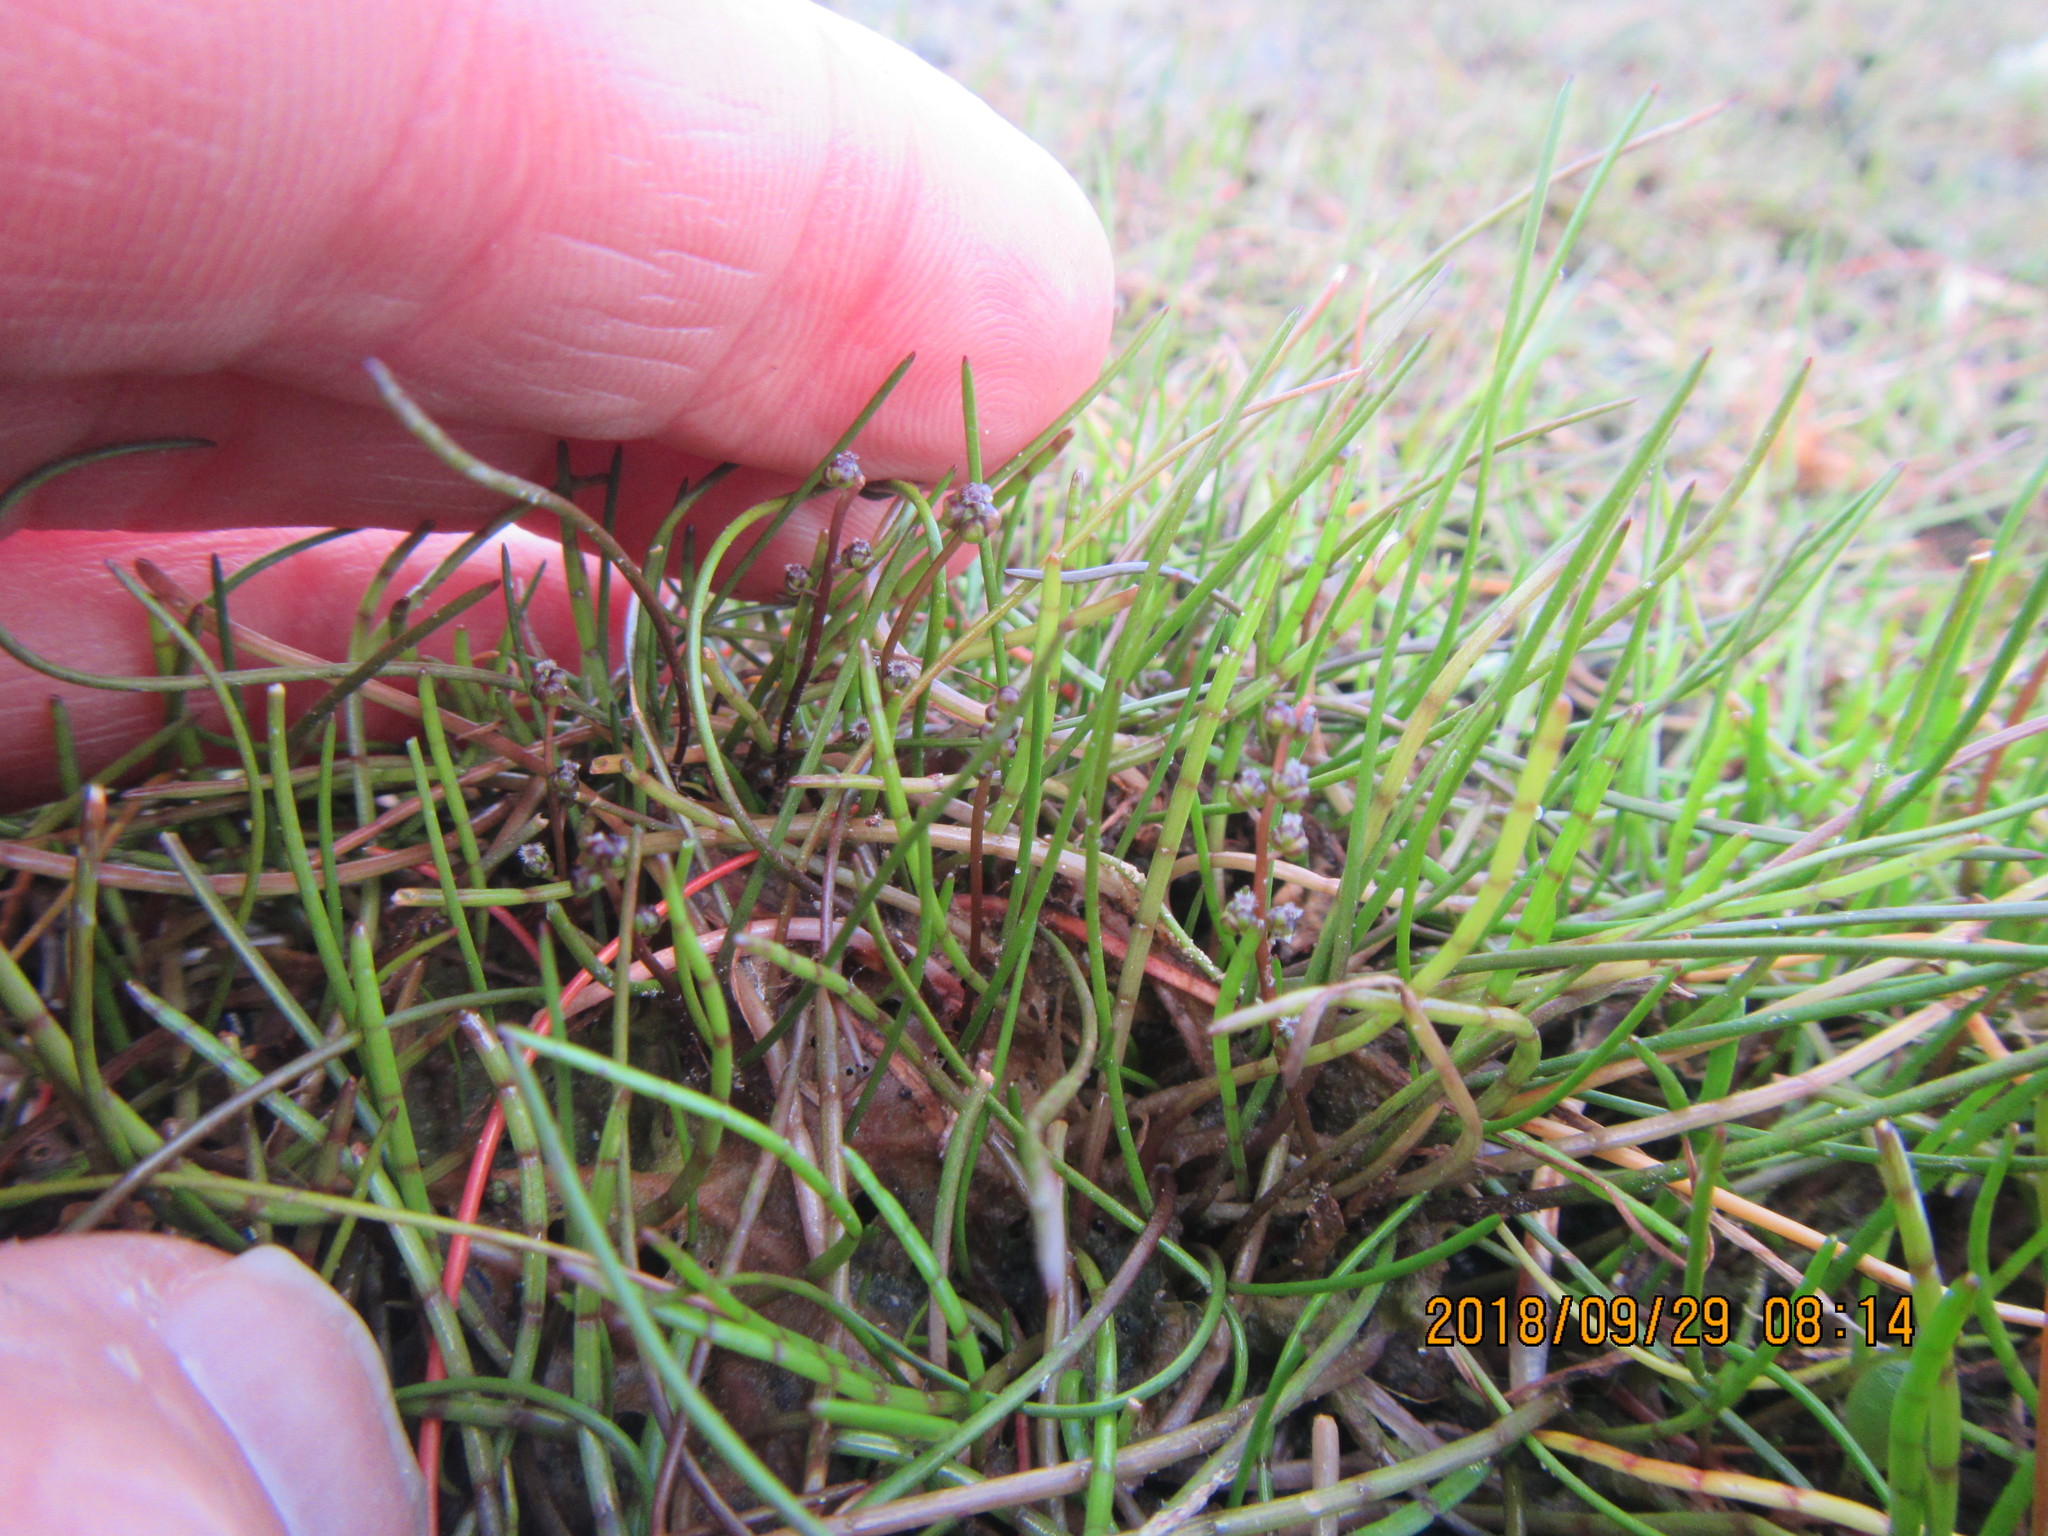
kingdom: Plantae
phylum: Tracheophyta
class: Magnoliopsida
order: Apiales
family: Apiaceae
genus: Lilaeopsis
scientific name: Lilaeopsis novae-zelandiae
